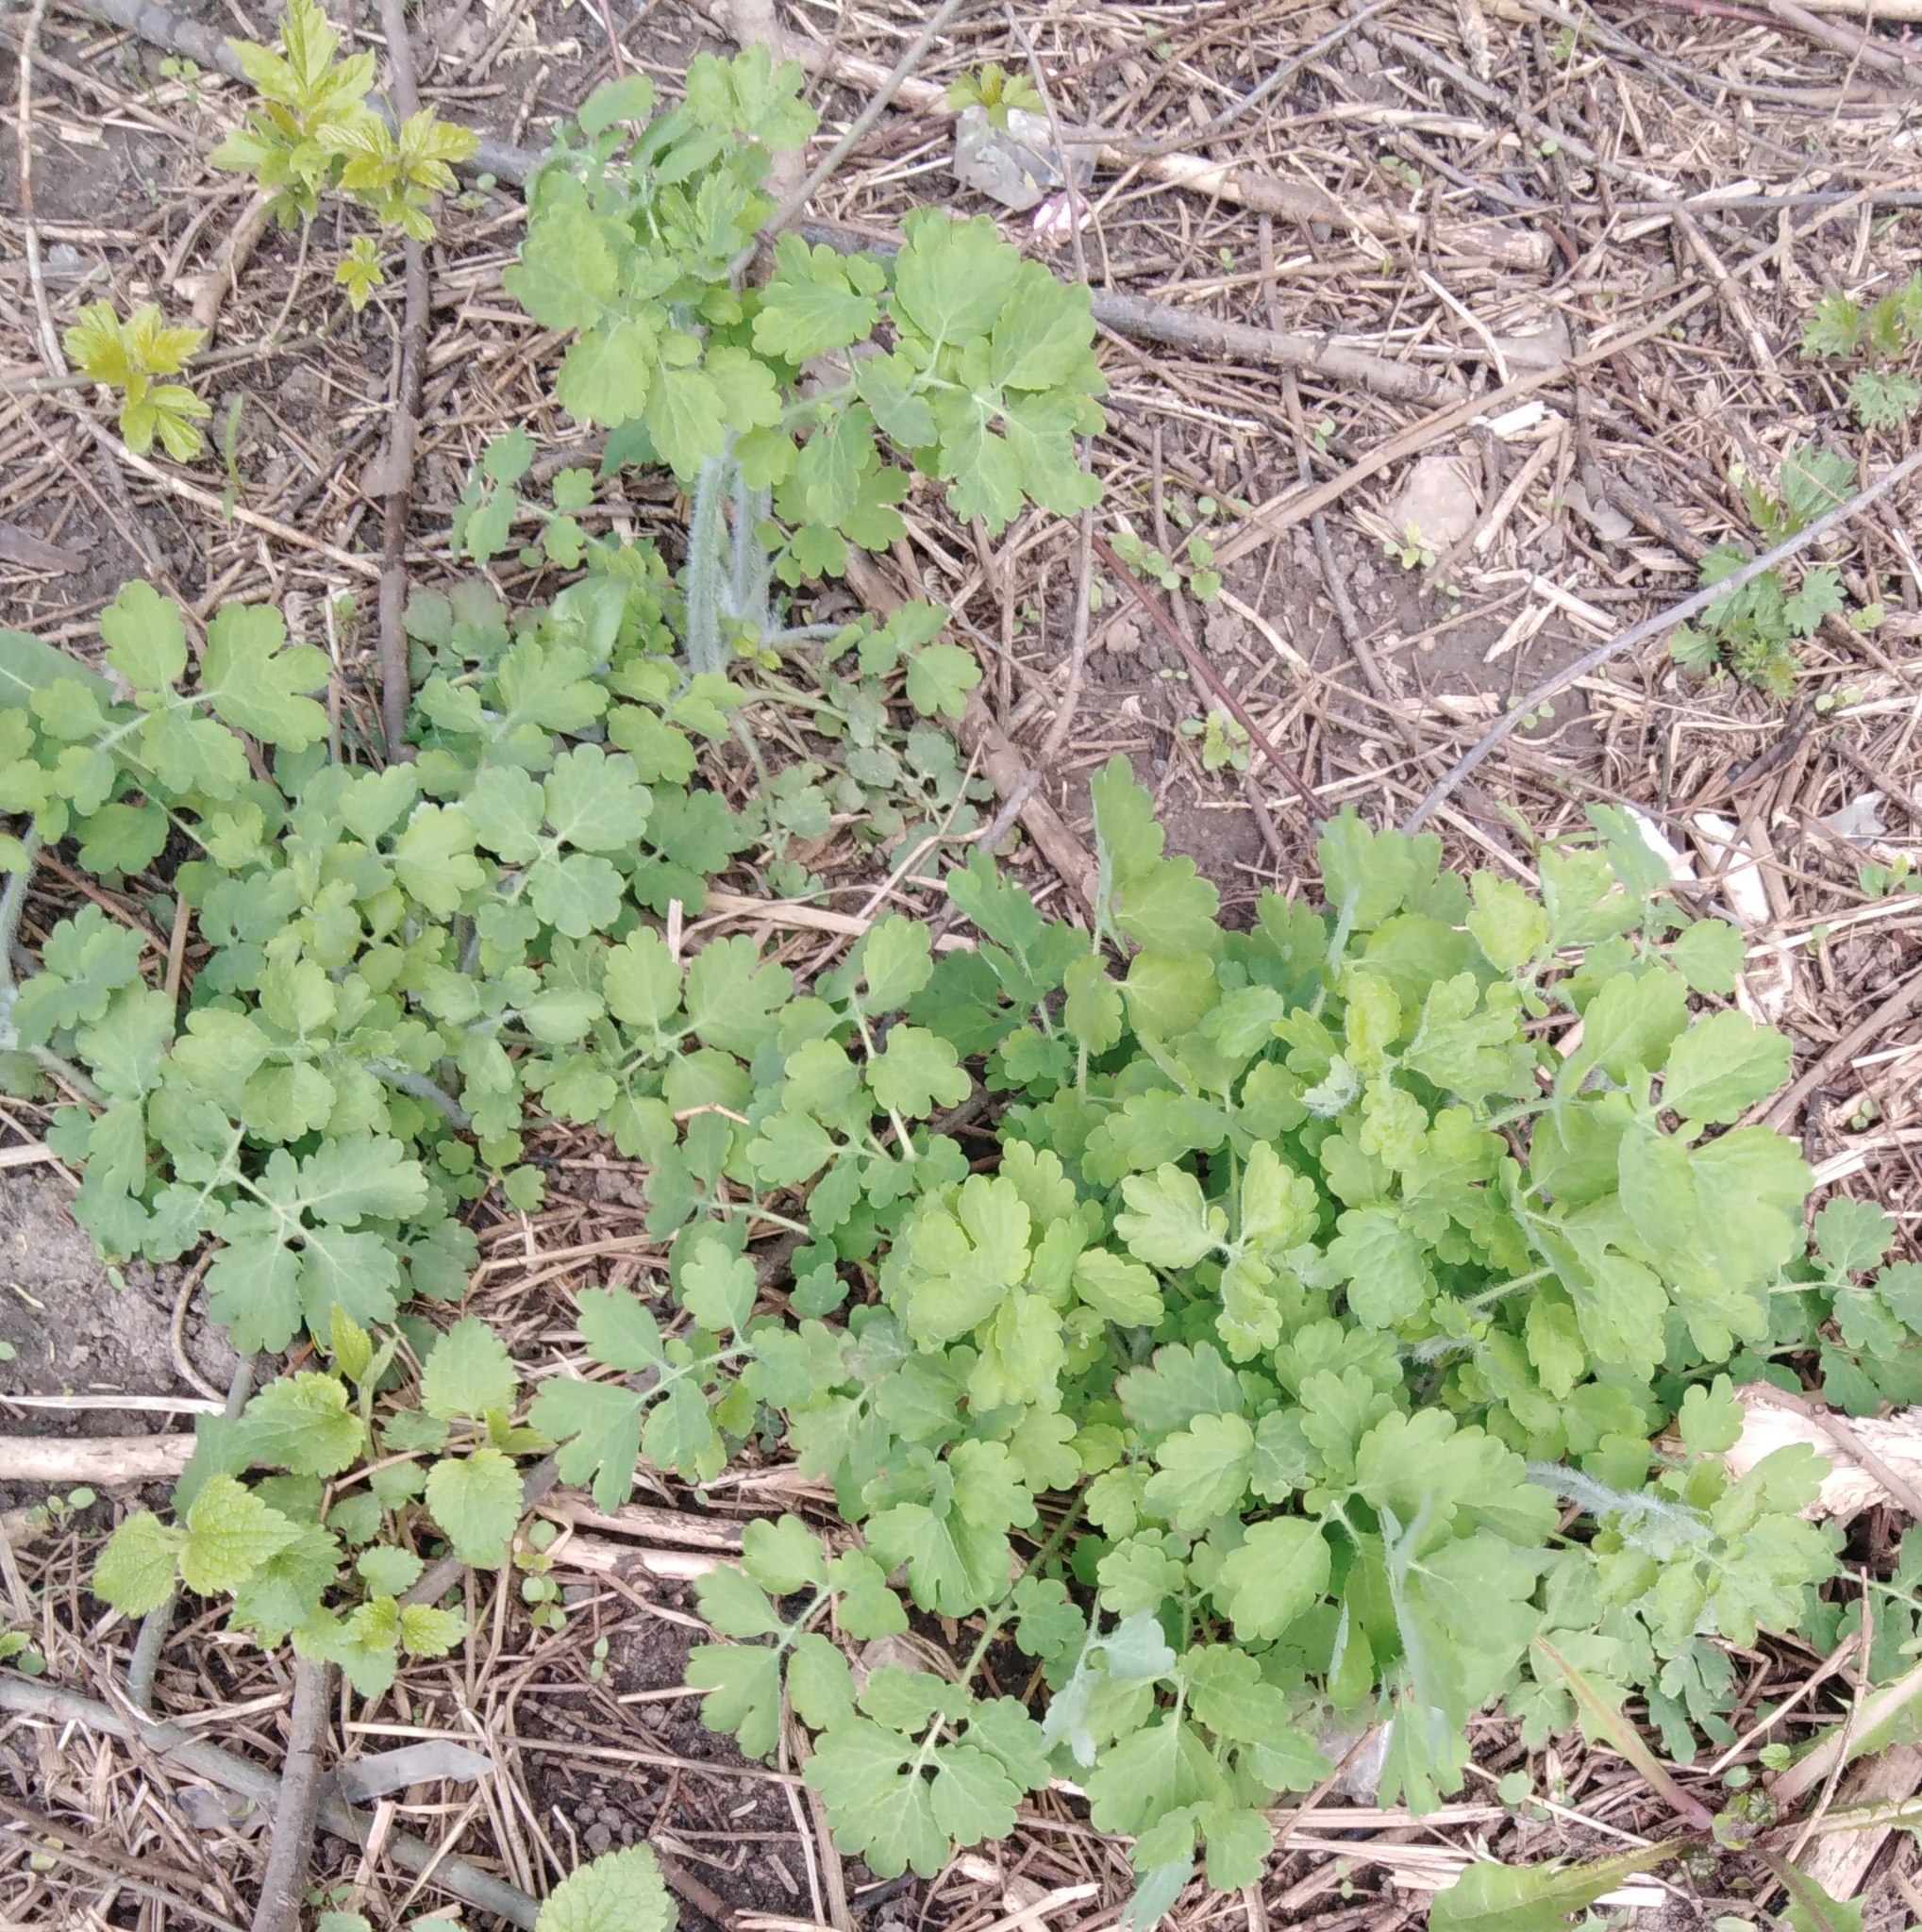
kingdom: Plantae
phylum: Tracheophyta
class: Magnoliopsida
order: Ranunculales
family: Papaveraceae
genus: Chelidonium
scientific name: Chelidonium majus
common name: Greater celandine
